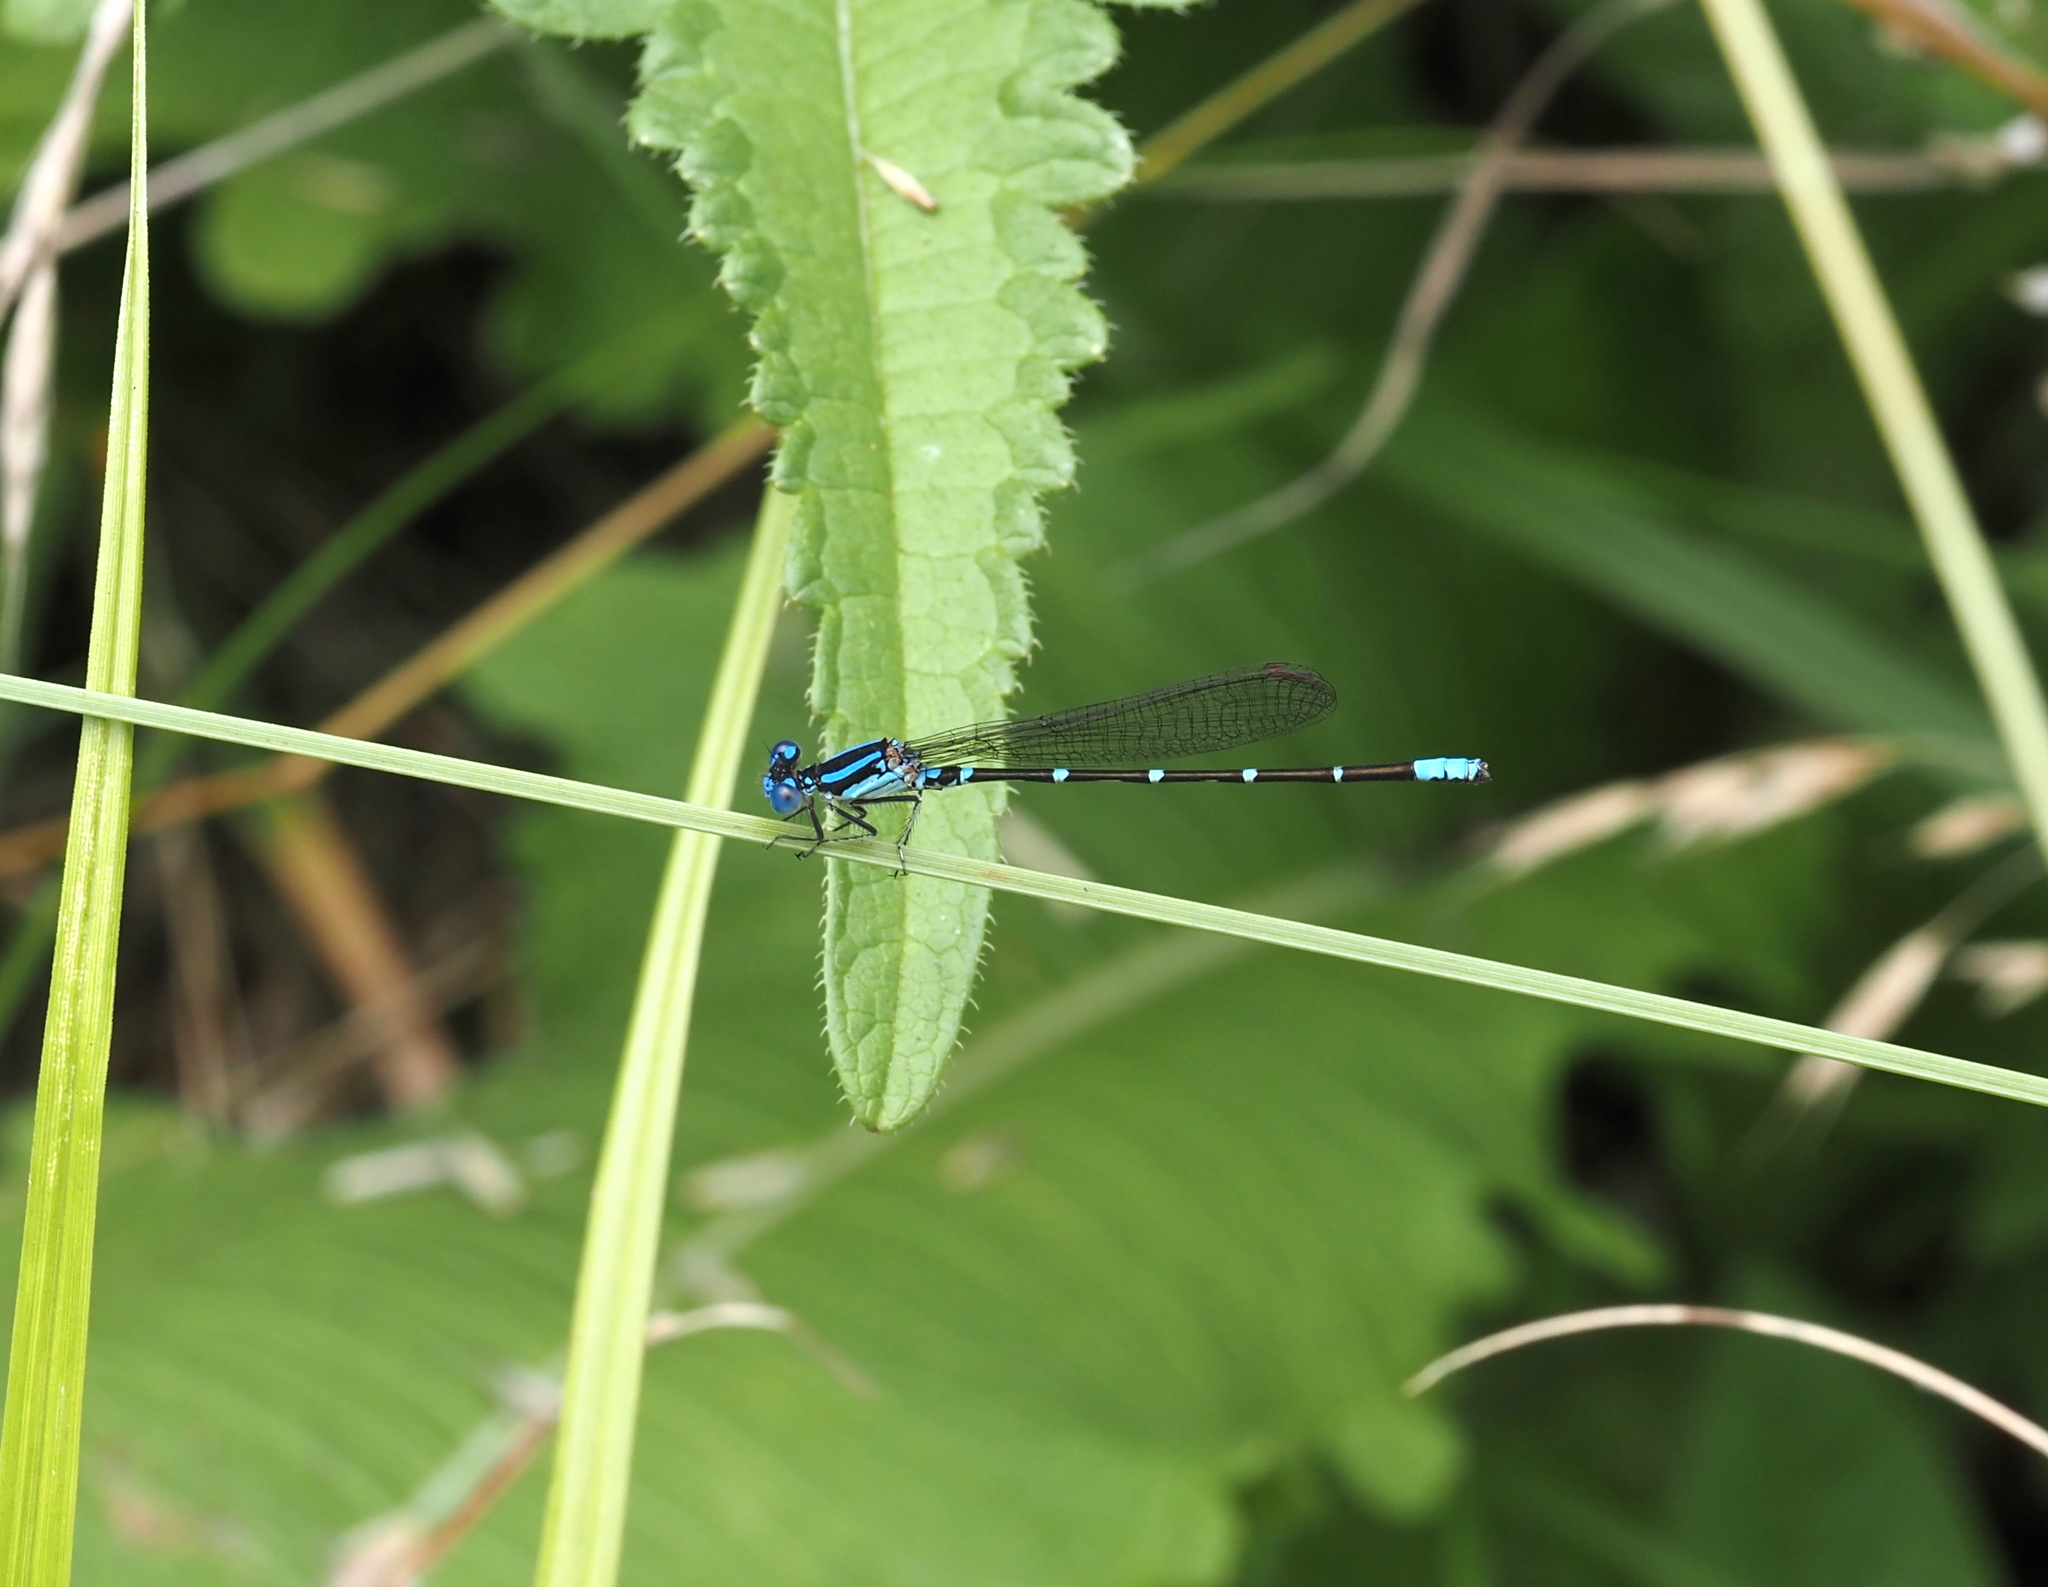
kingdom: Animalia
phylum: Arthropoda
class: Insecta
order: Odonata
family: Coenagrionidae
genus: Argia
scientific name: Argia sedula
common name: Blue-ringed dancer
